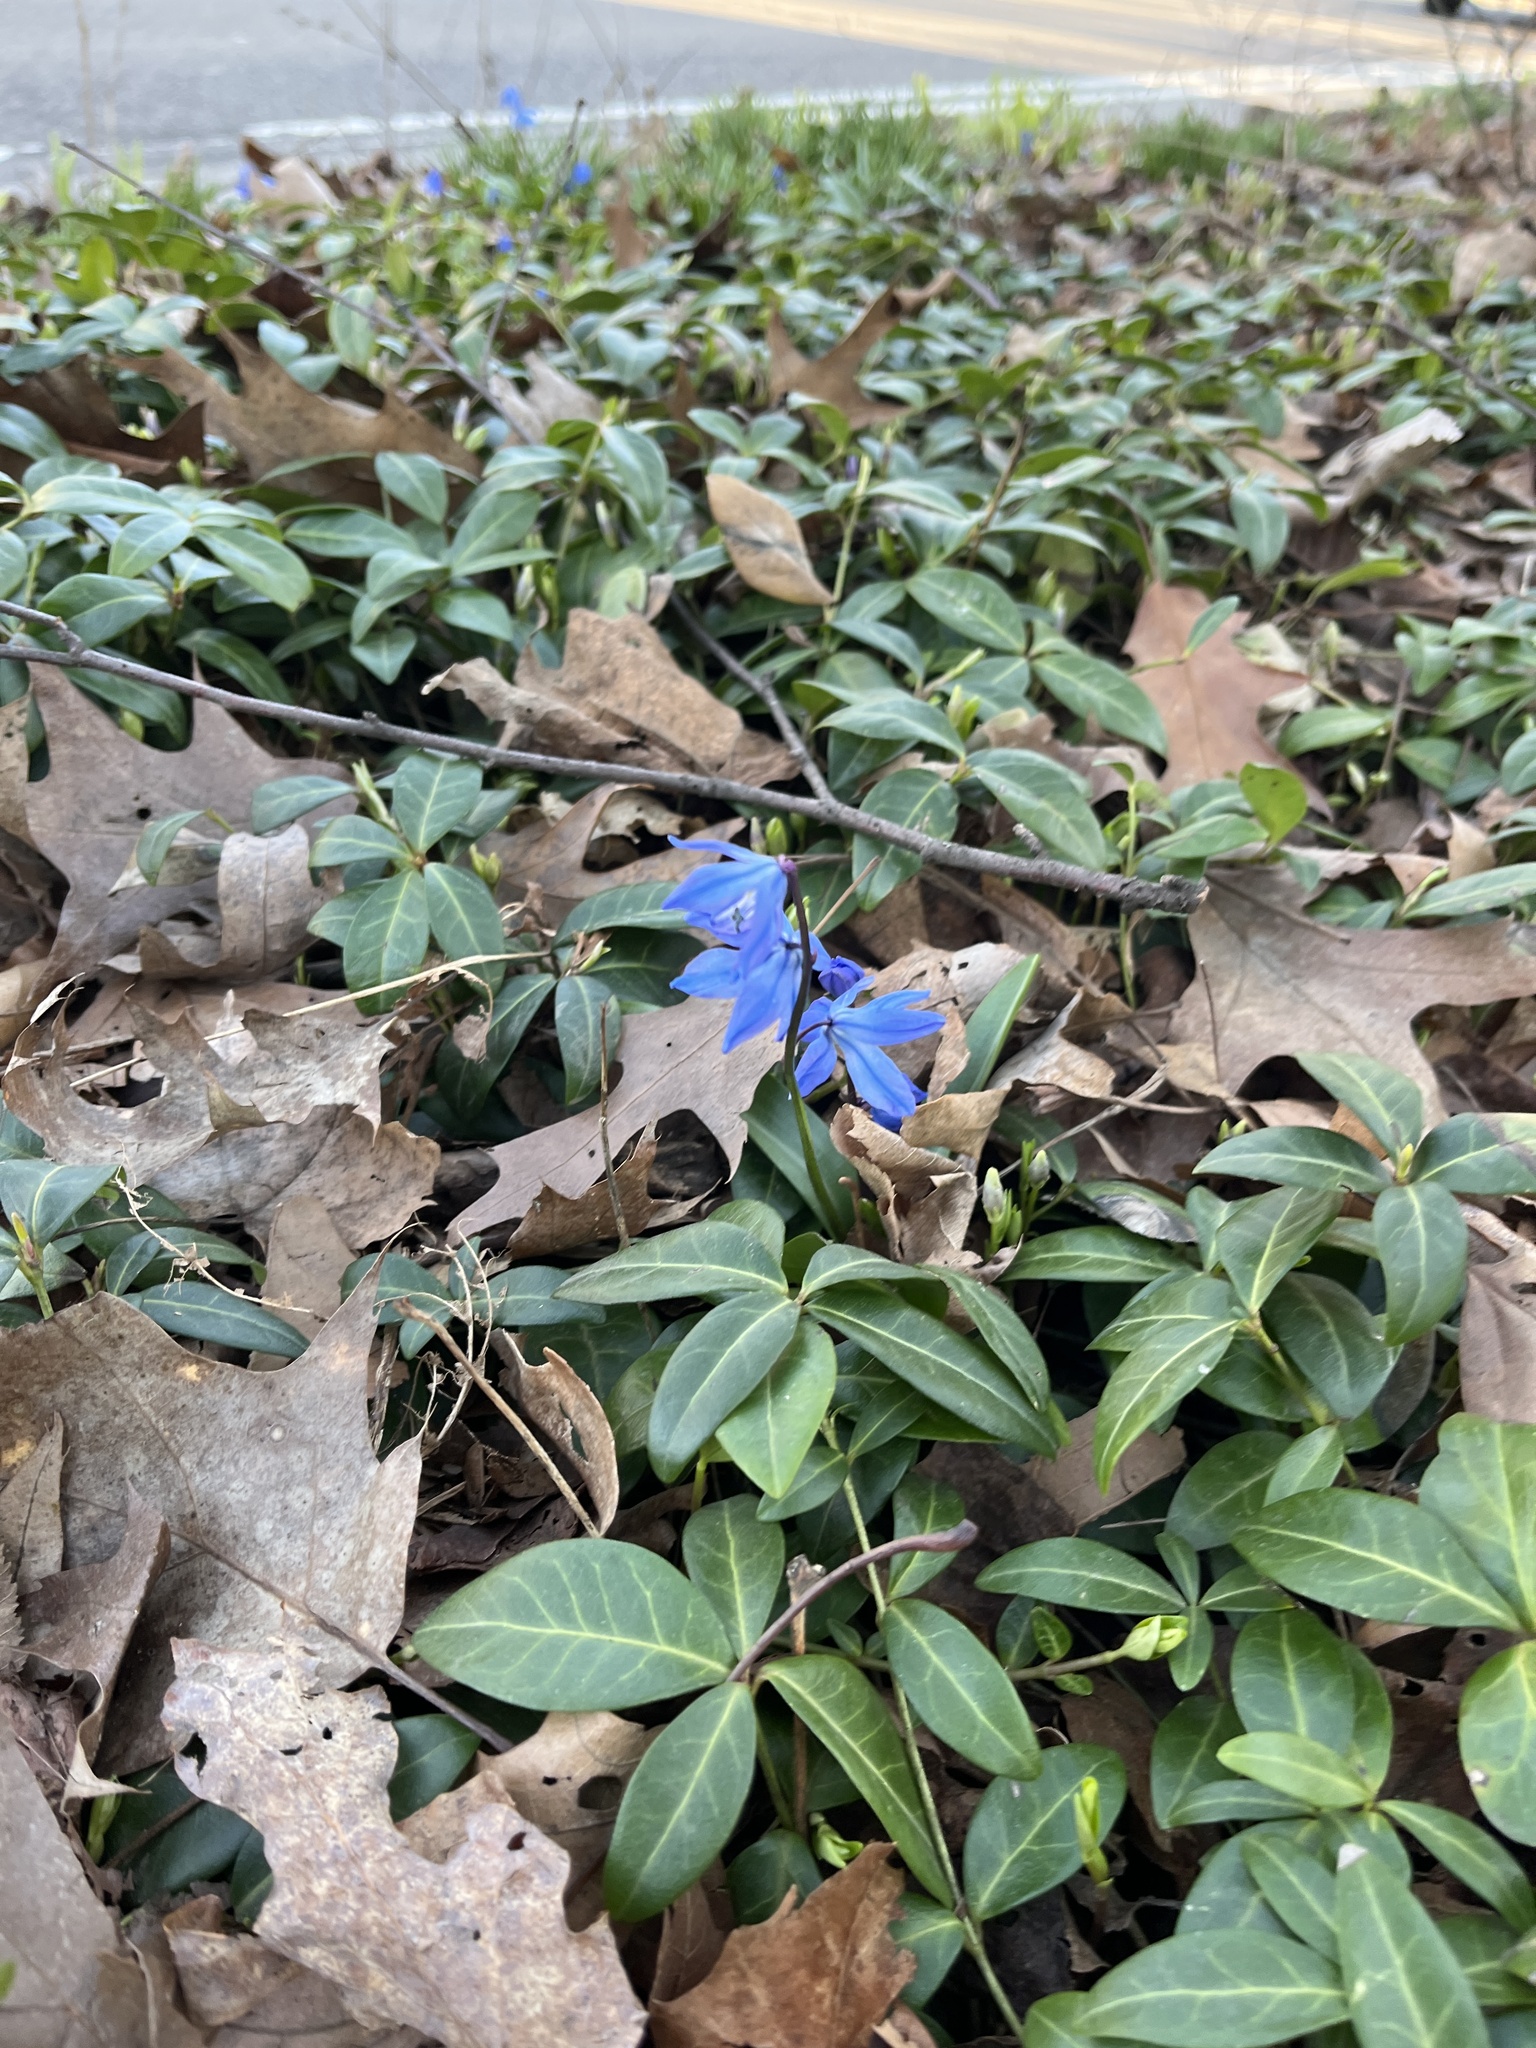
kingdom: Plantae
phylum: Tracheophyta
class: Liliopsida
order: Asparagales
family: Asparagaceae
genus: Scilla
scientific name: Scilla siberica
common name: Siberian squill
